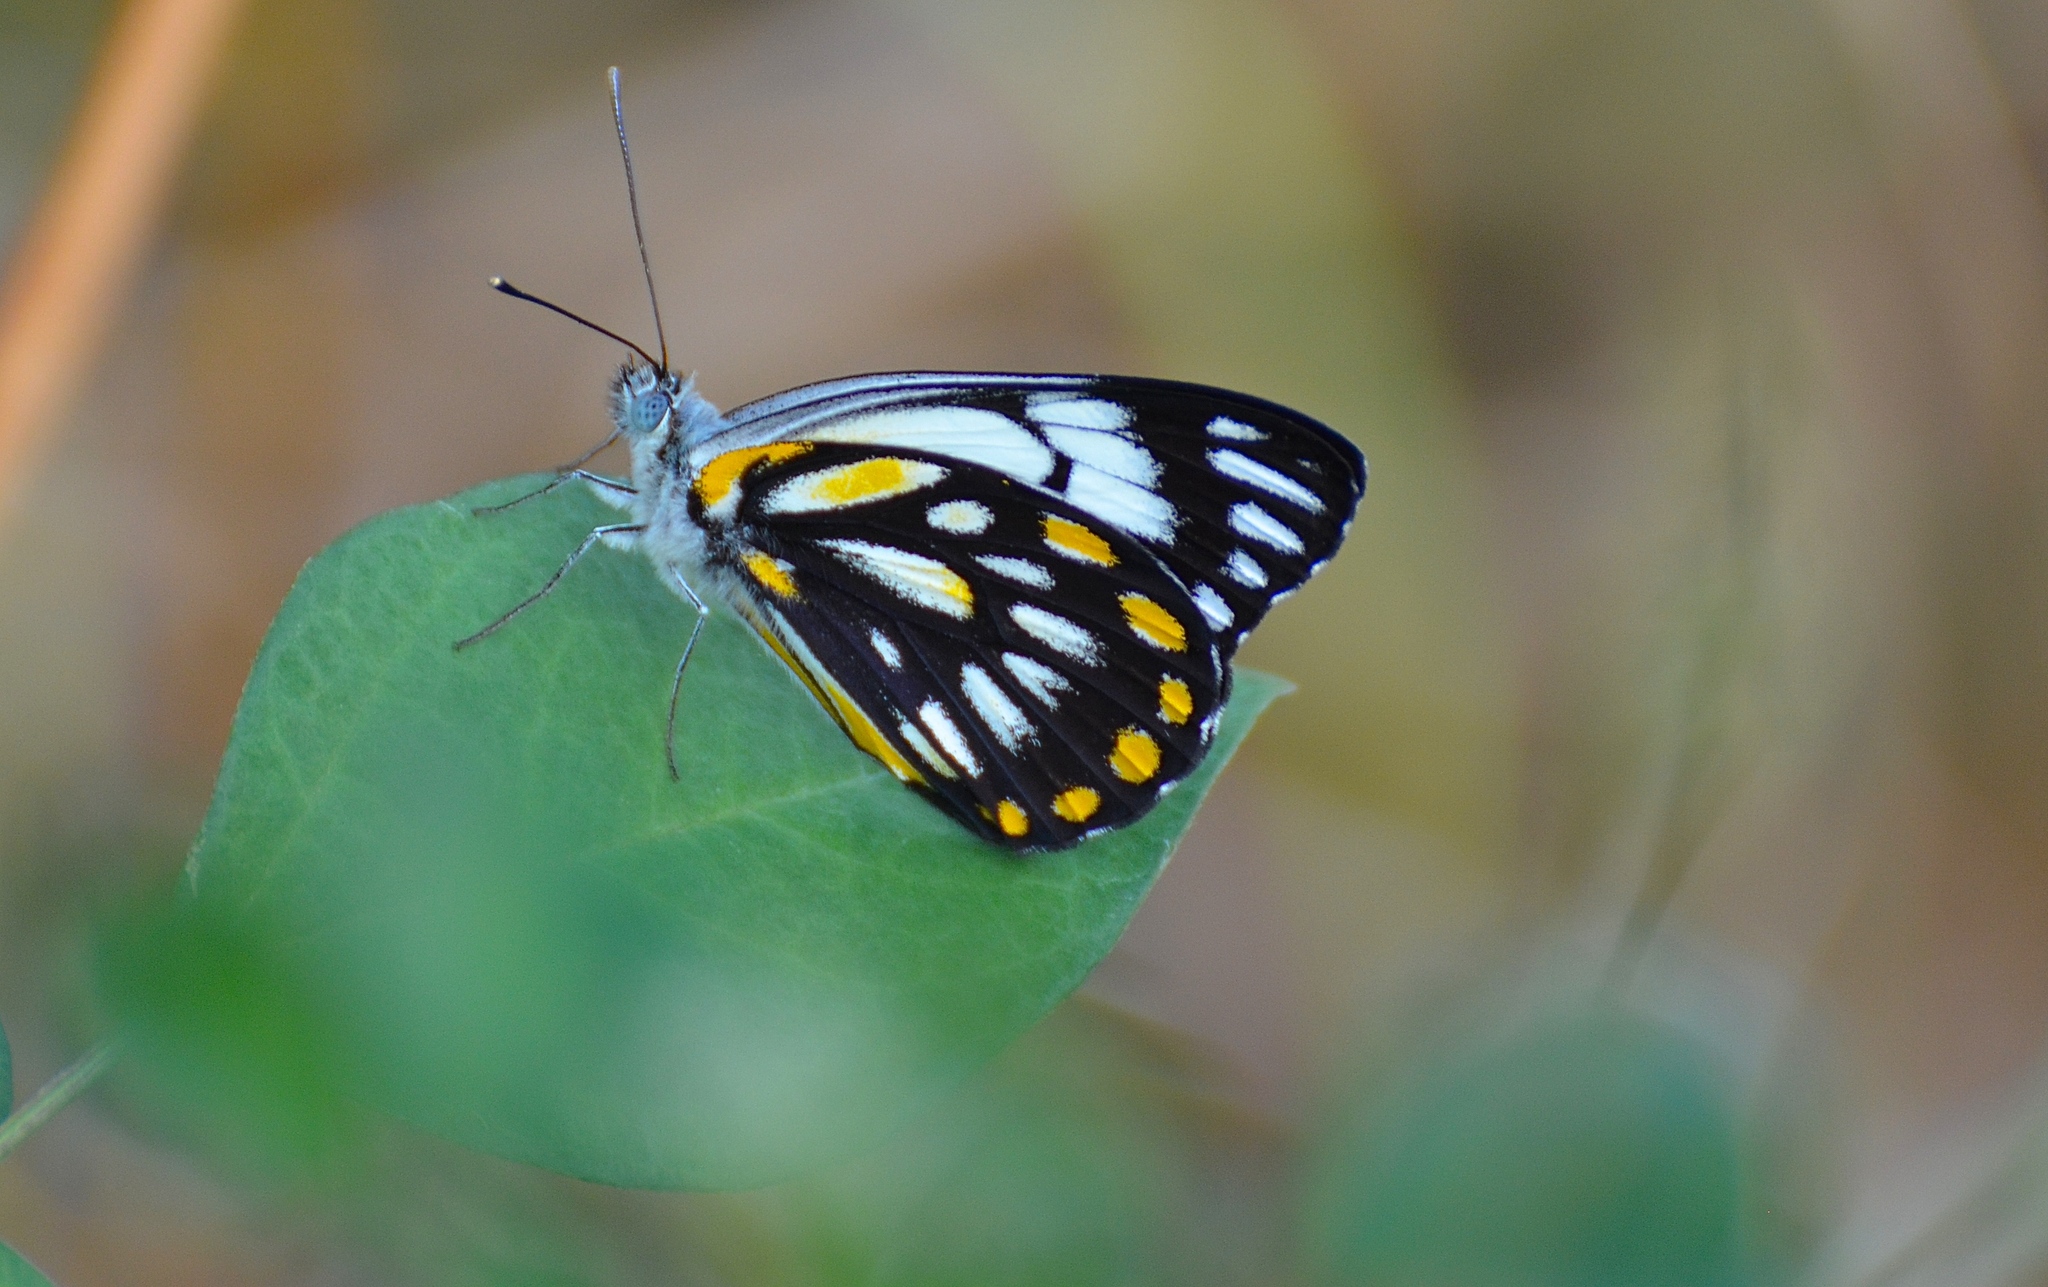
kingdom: Animalia
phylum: Arthropoda
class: Insecta
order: Lepidoptera
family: Pieridae
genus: Belenois
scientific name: Belenois java
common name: Caper white
